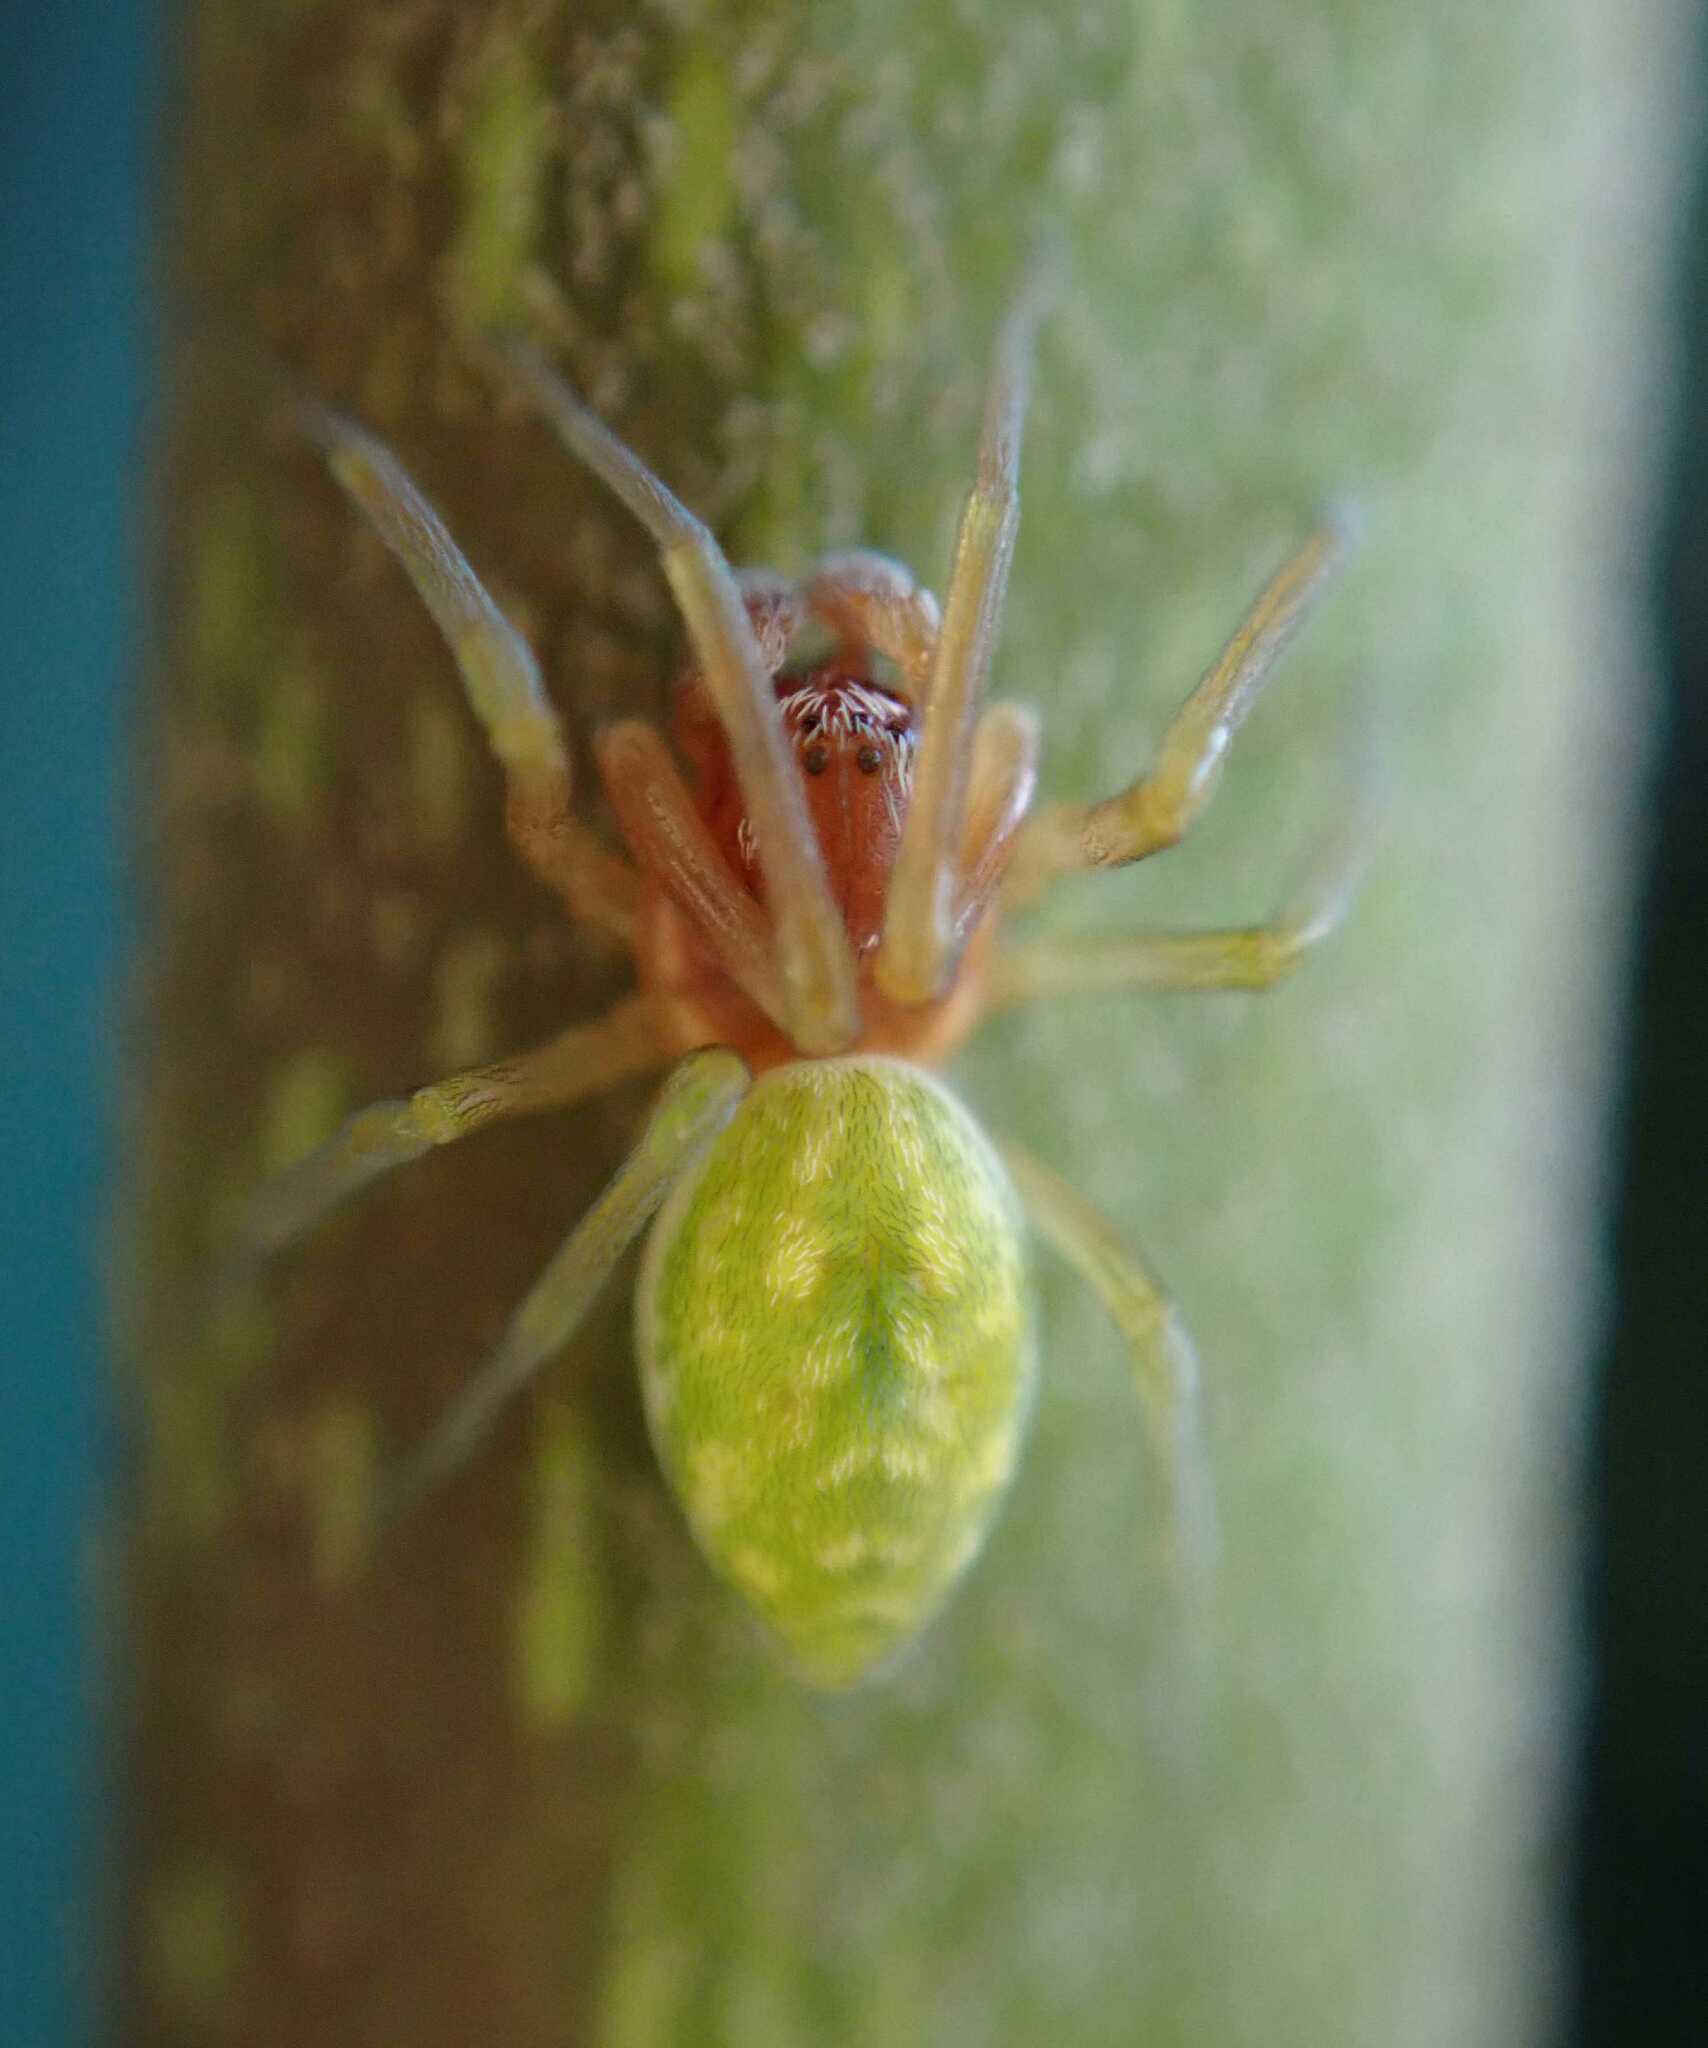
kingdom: Animalia
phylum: Arthropoda
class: Arachnida
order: Araneae
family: Dictynidae
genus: Nigma
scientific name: Nigma walckenaeri
